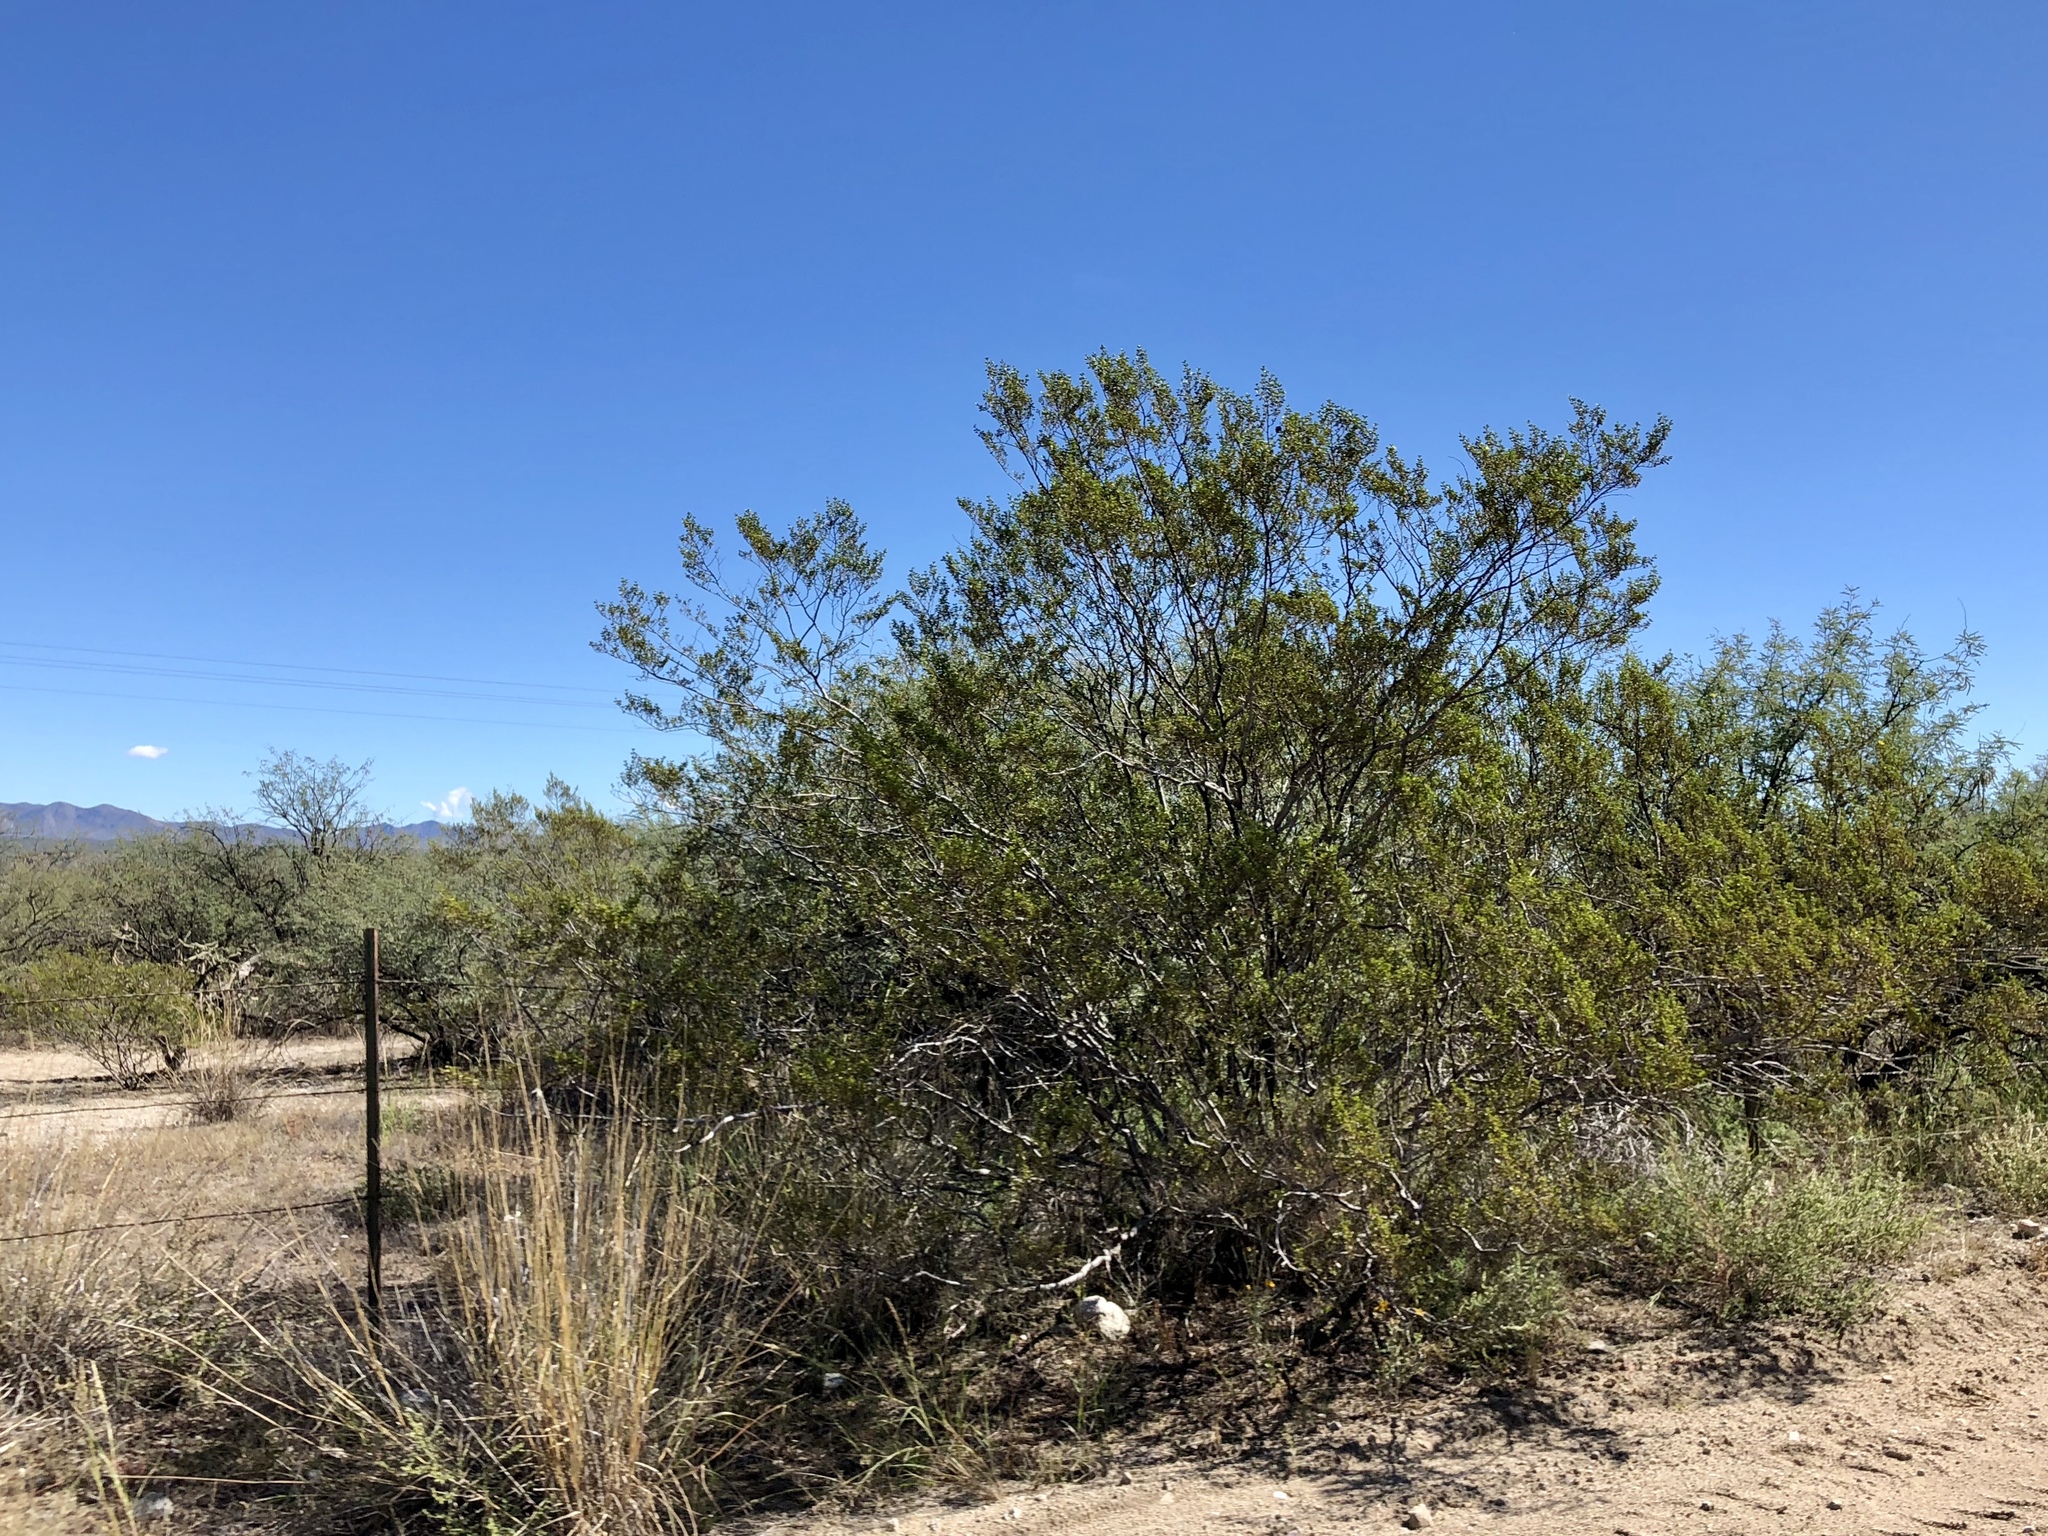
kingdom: Plantae
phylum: Tracheophyta
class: Magnoliopsida
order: Zygophyllales
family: Zygophyllaceae
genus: Larrea
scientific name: Larrea tridentata
